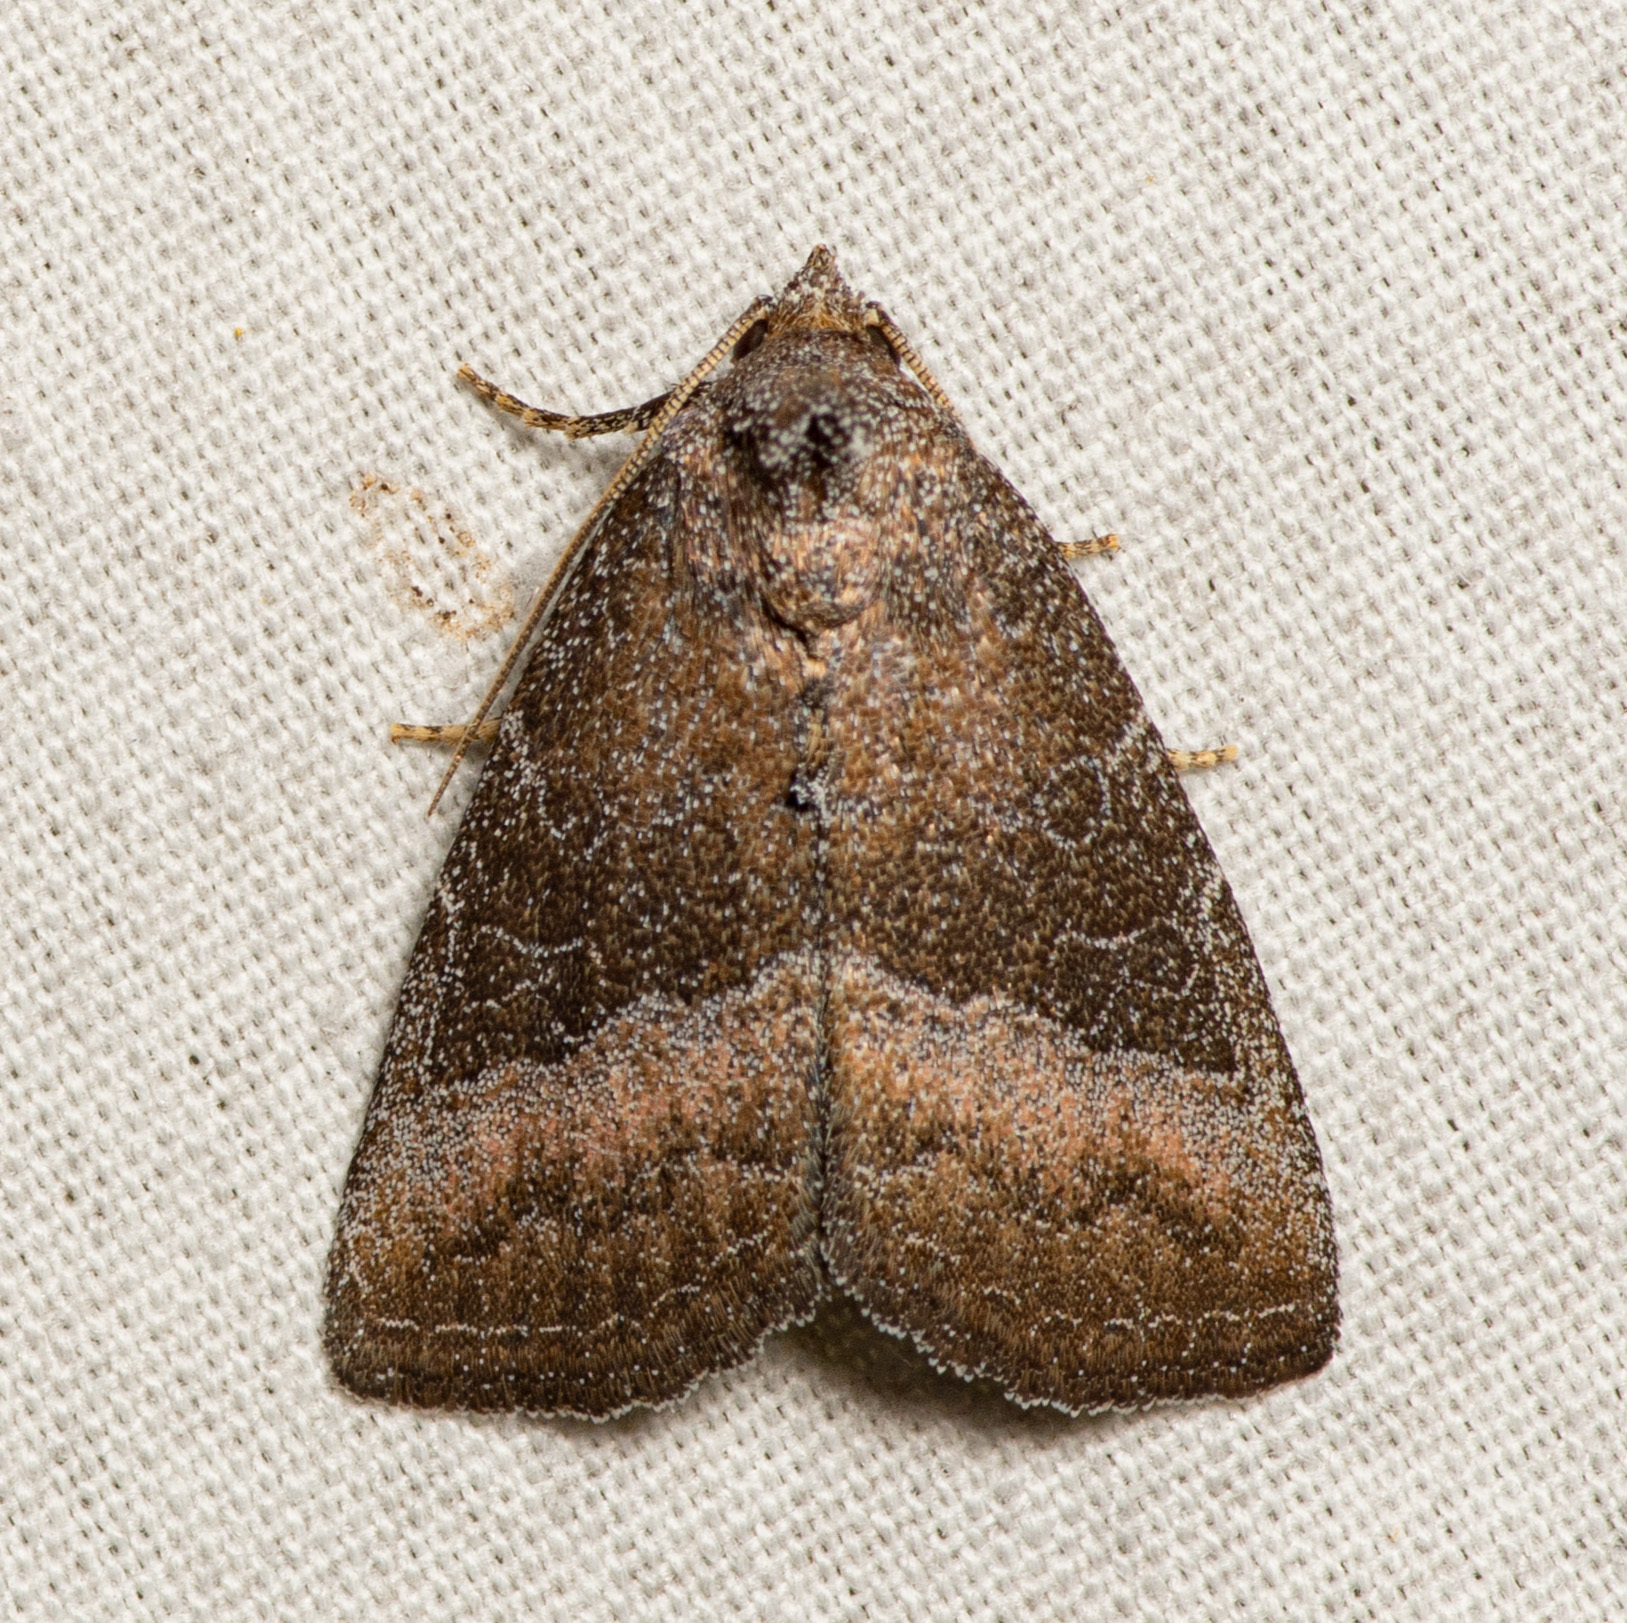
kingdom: Animalia
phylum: Arthropoda
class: Insecta
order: Lepidoptera
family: Noctuidae
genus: Ogdoconta
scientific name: Ogdoconta cinereola
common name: Common pinkband
